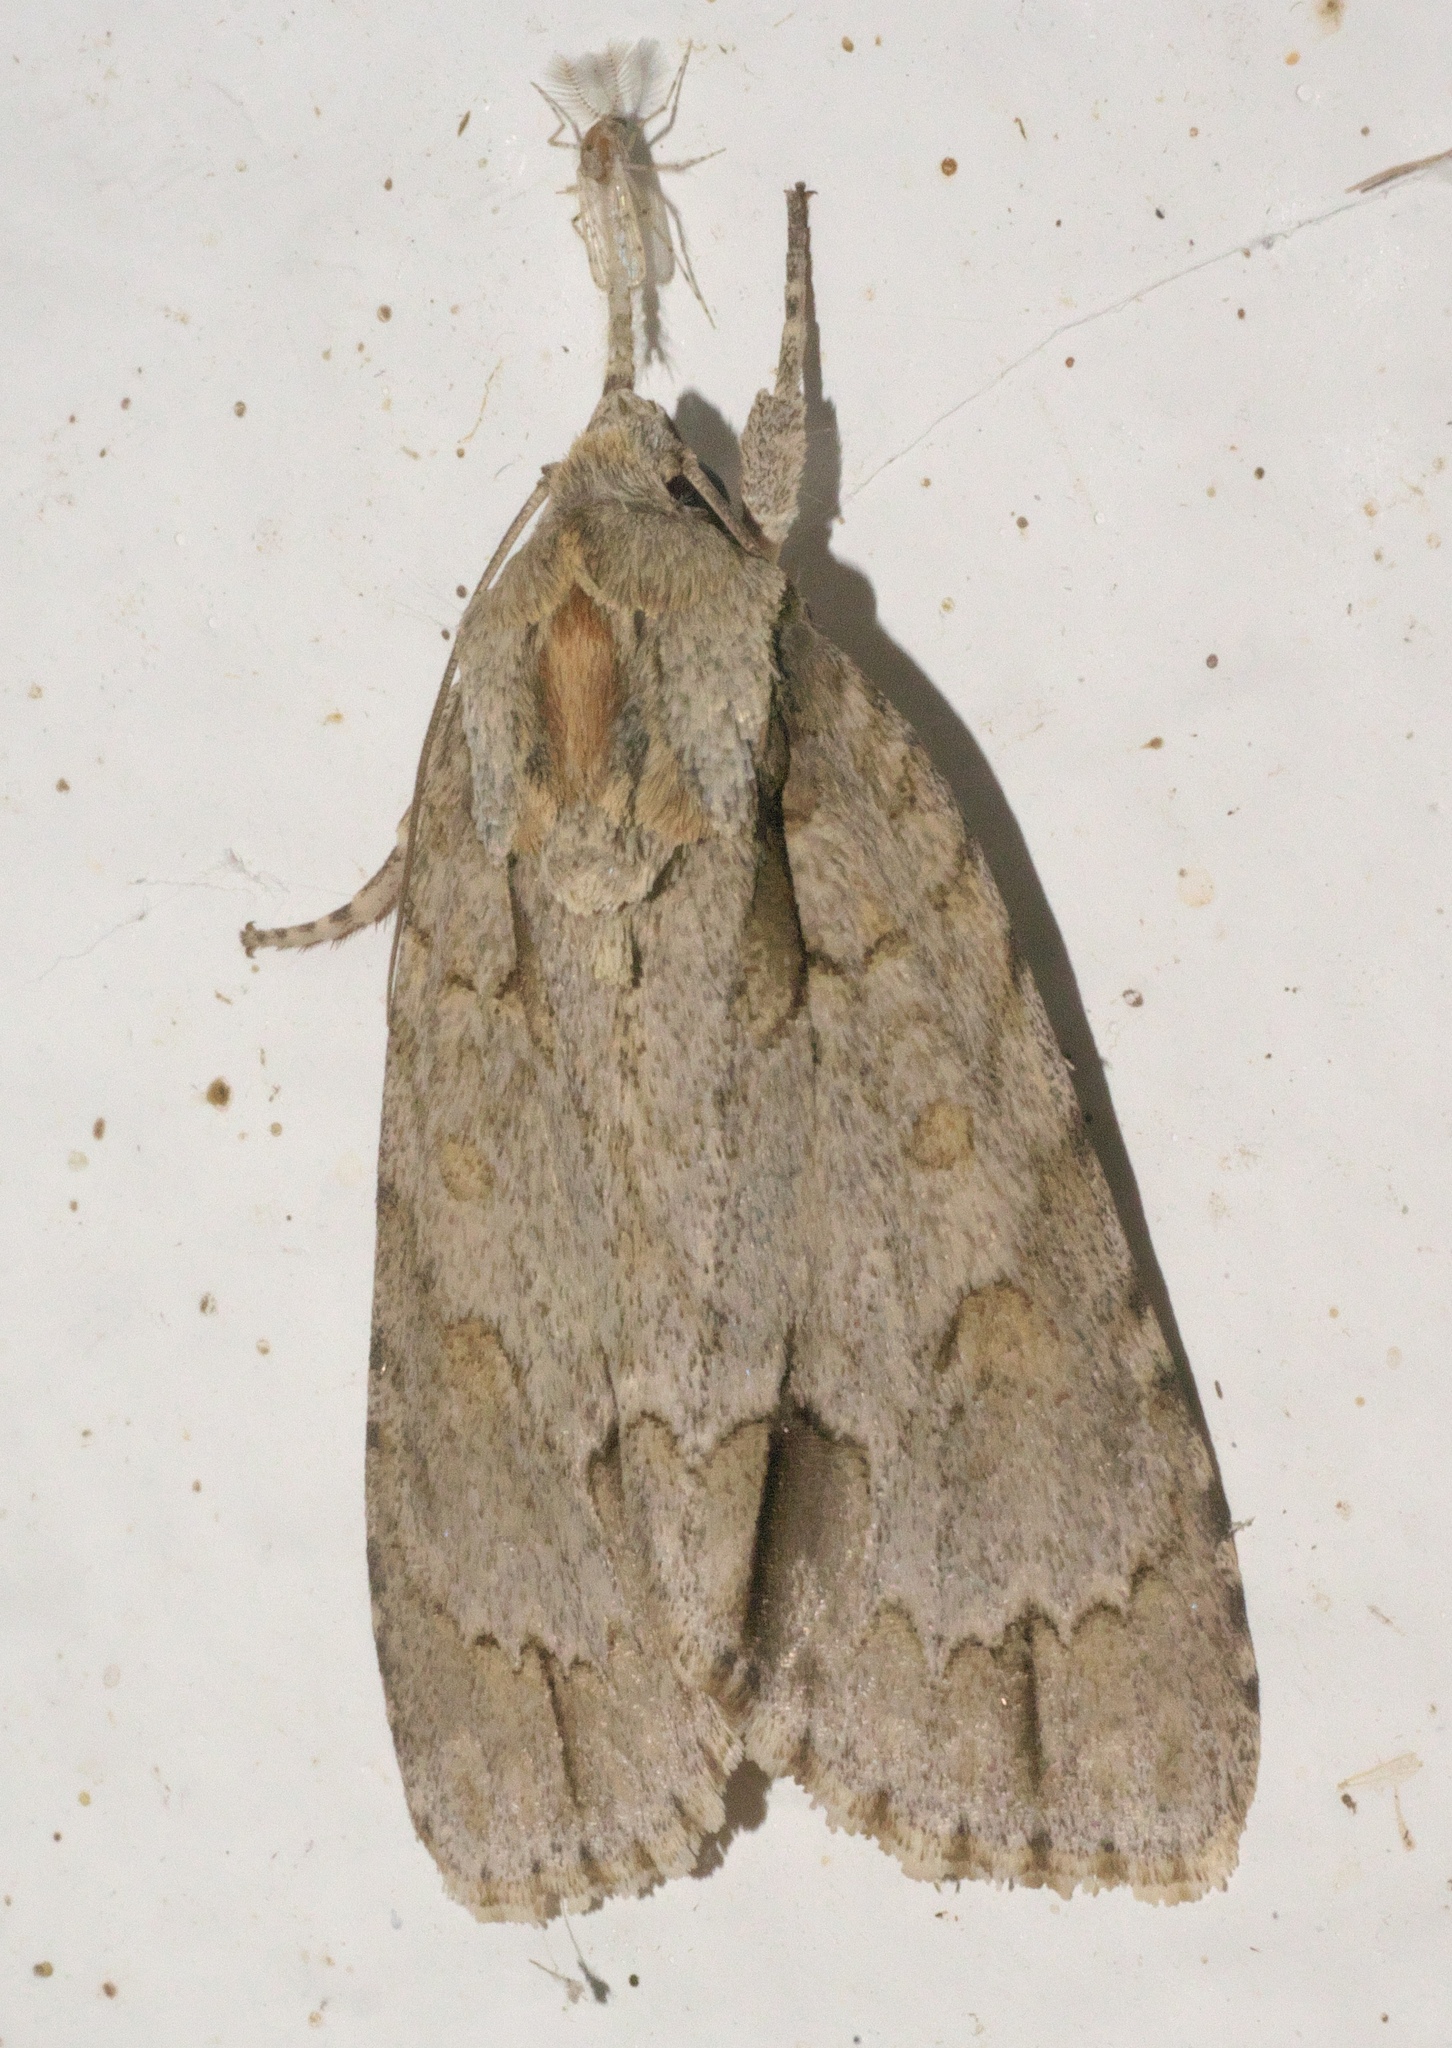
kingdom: Animalia
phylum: Arthropoda
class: Insecta
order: Lepidoptera
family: Noctuidae
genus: Acronicta
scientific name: Acronicta morula
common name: Ochre dagger
